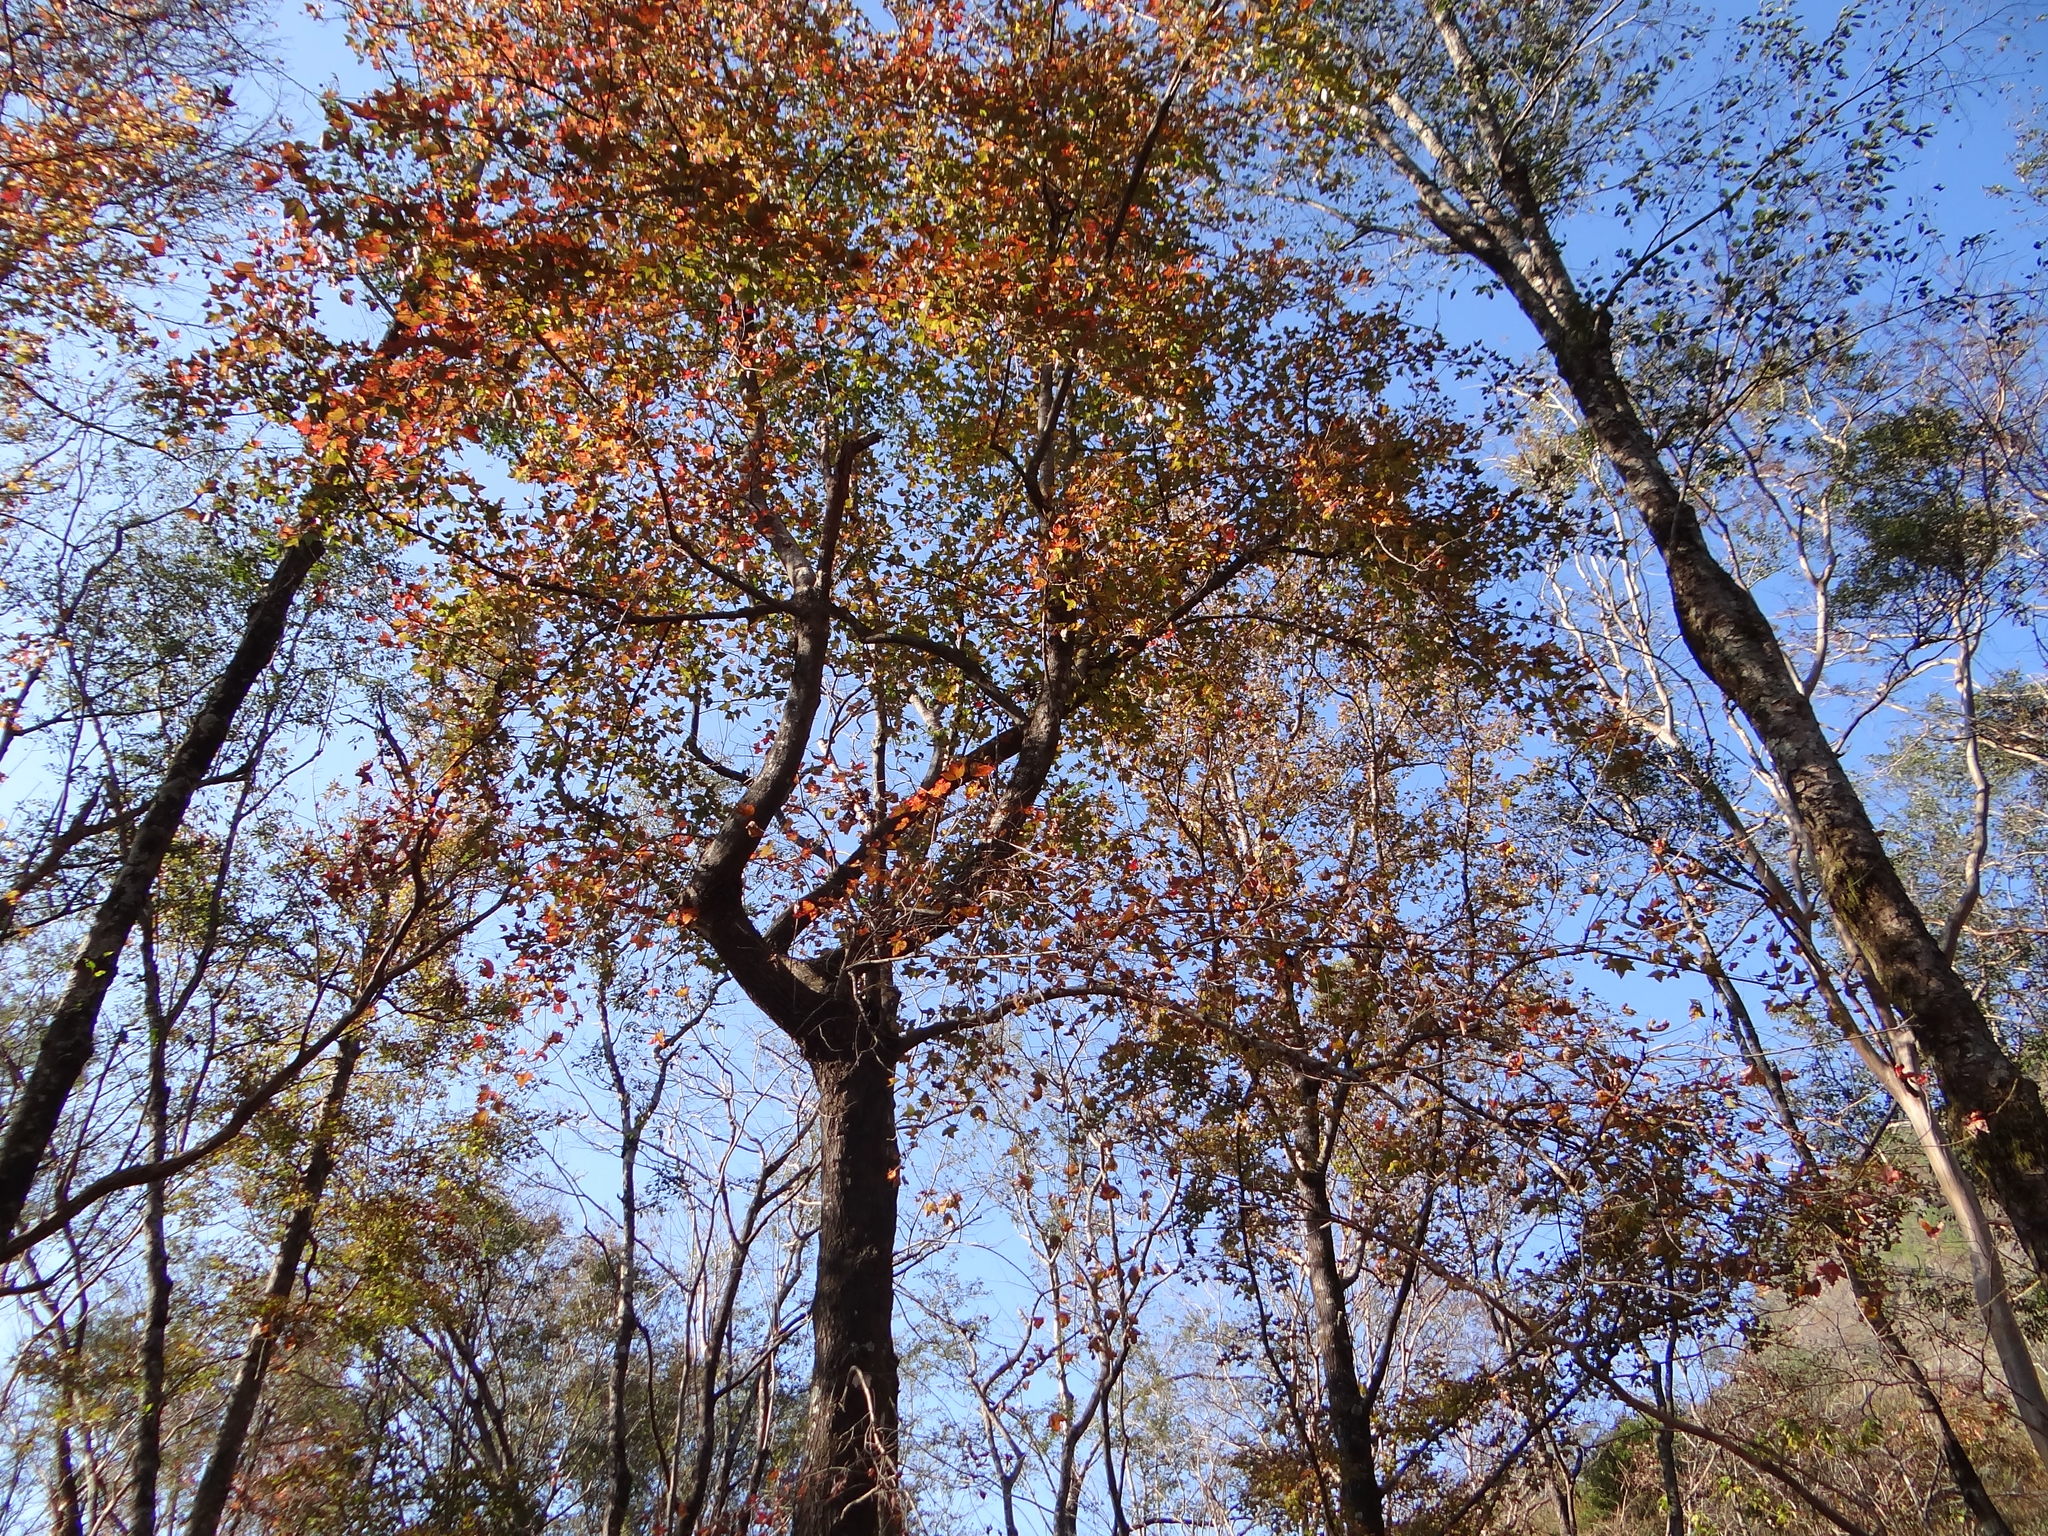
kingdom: Plantae
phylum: Tracheophyta
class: Magnoliopsida
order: Saxifragales
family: Altingiaceae
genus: Liquidambar
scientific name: Liquidambar formosana
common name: Chinese sweet gum
